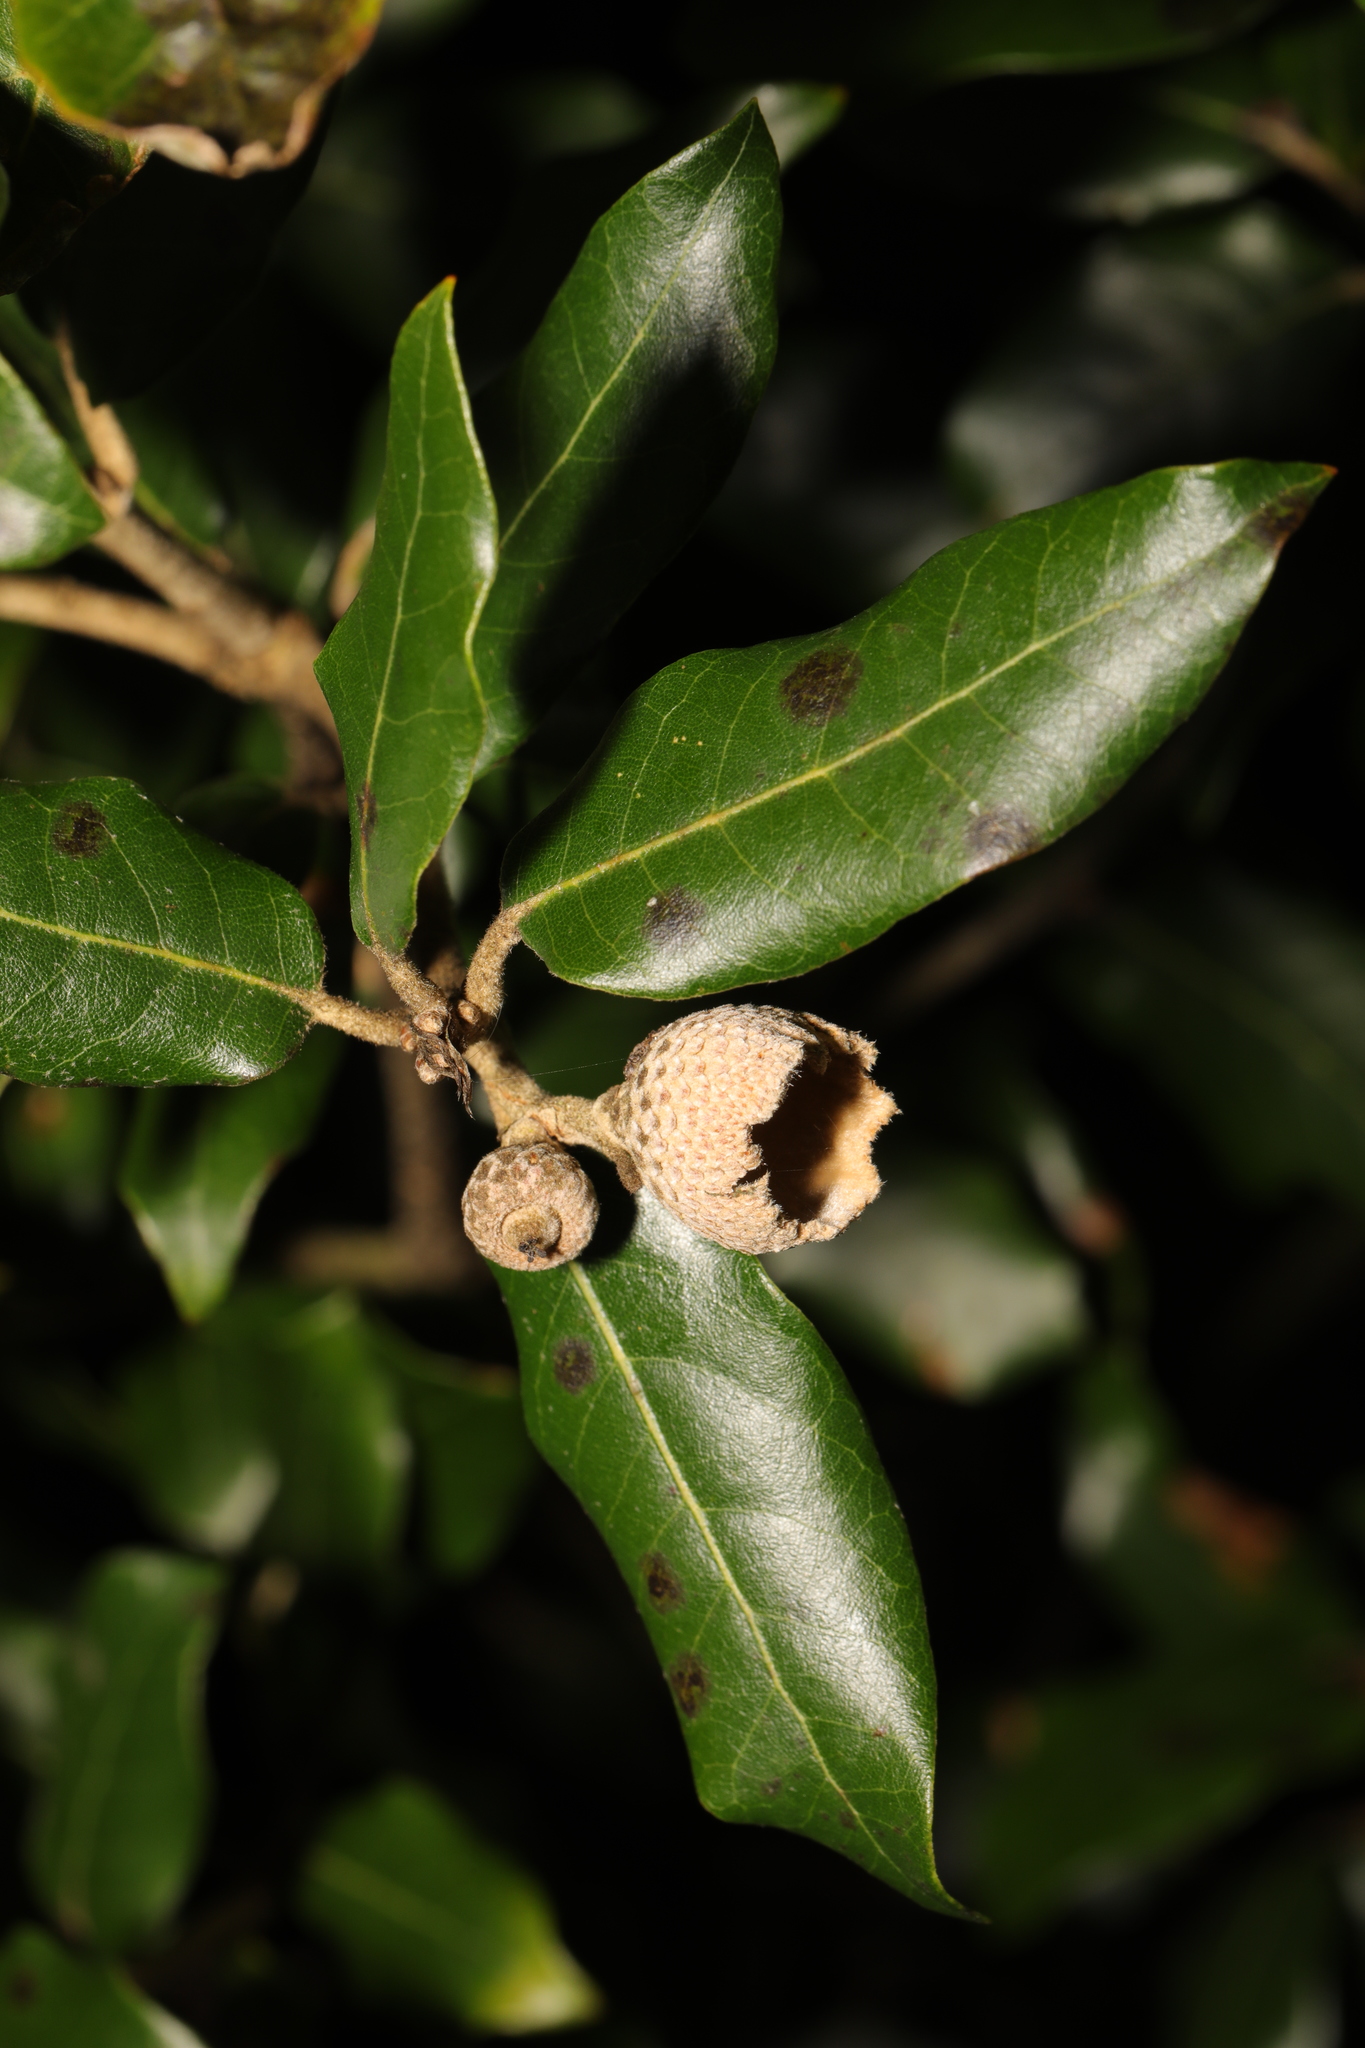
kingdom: Plantae
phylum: Tracheophyta
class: Magnoliopsida
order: Fagales
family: Fagaceae
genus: Quercus
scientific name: Quercus ilex
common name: Evergreen oak
